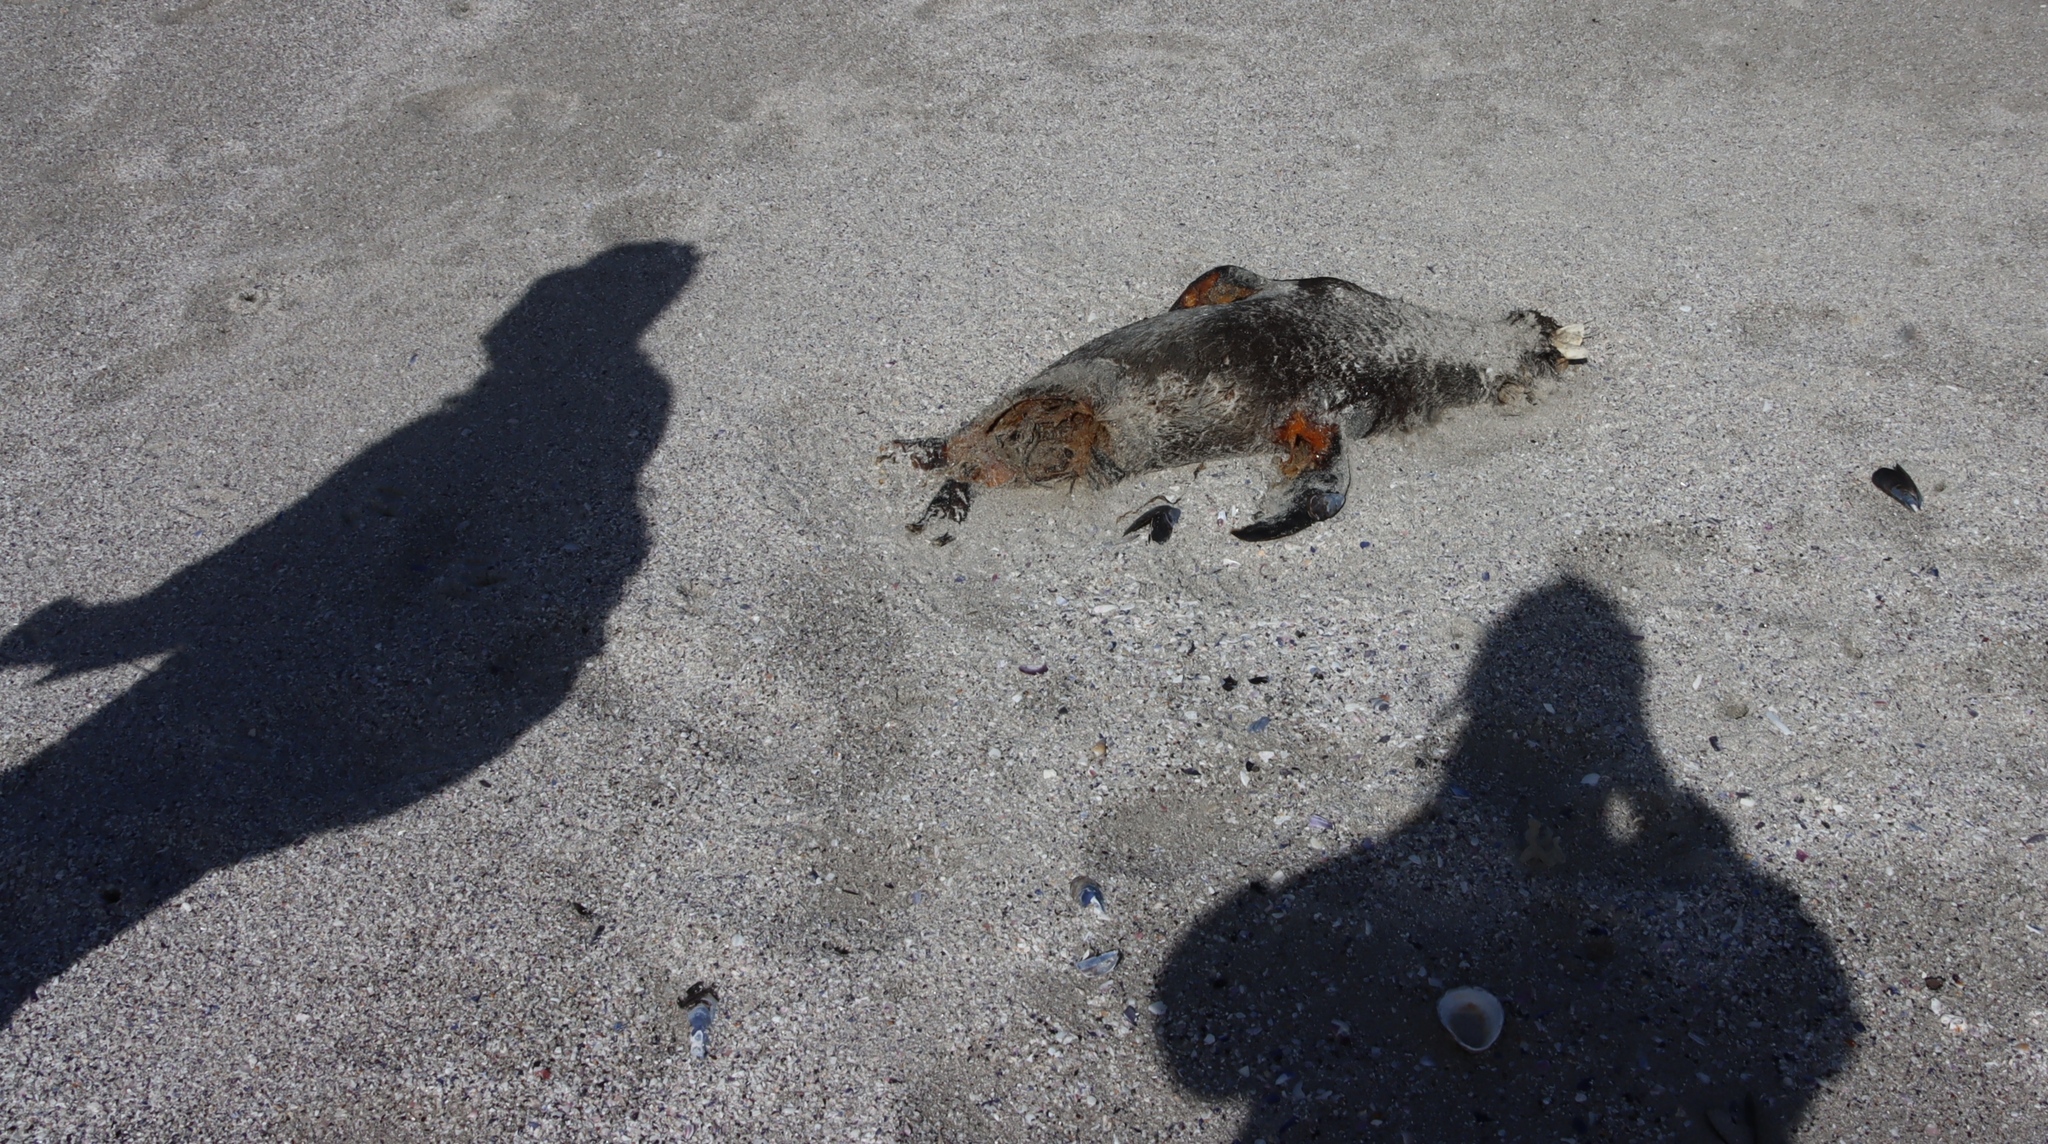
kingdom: Animalia
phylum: Chordata
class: Mammalia
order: Carnivora
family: Otariidae
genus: Arctocephalus
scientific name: Arctocephalus pusillus
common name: Brown fur seal
